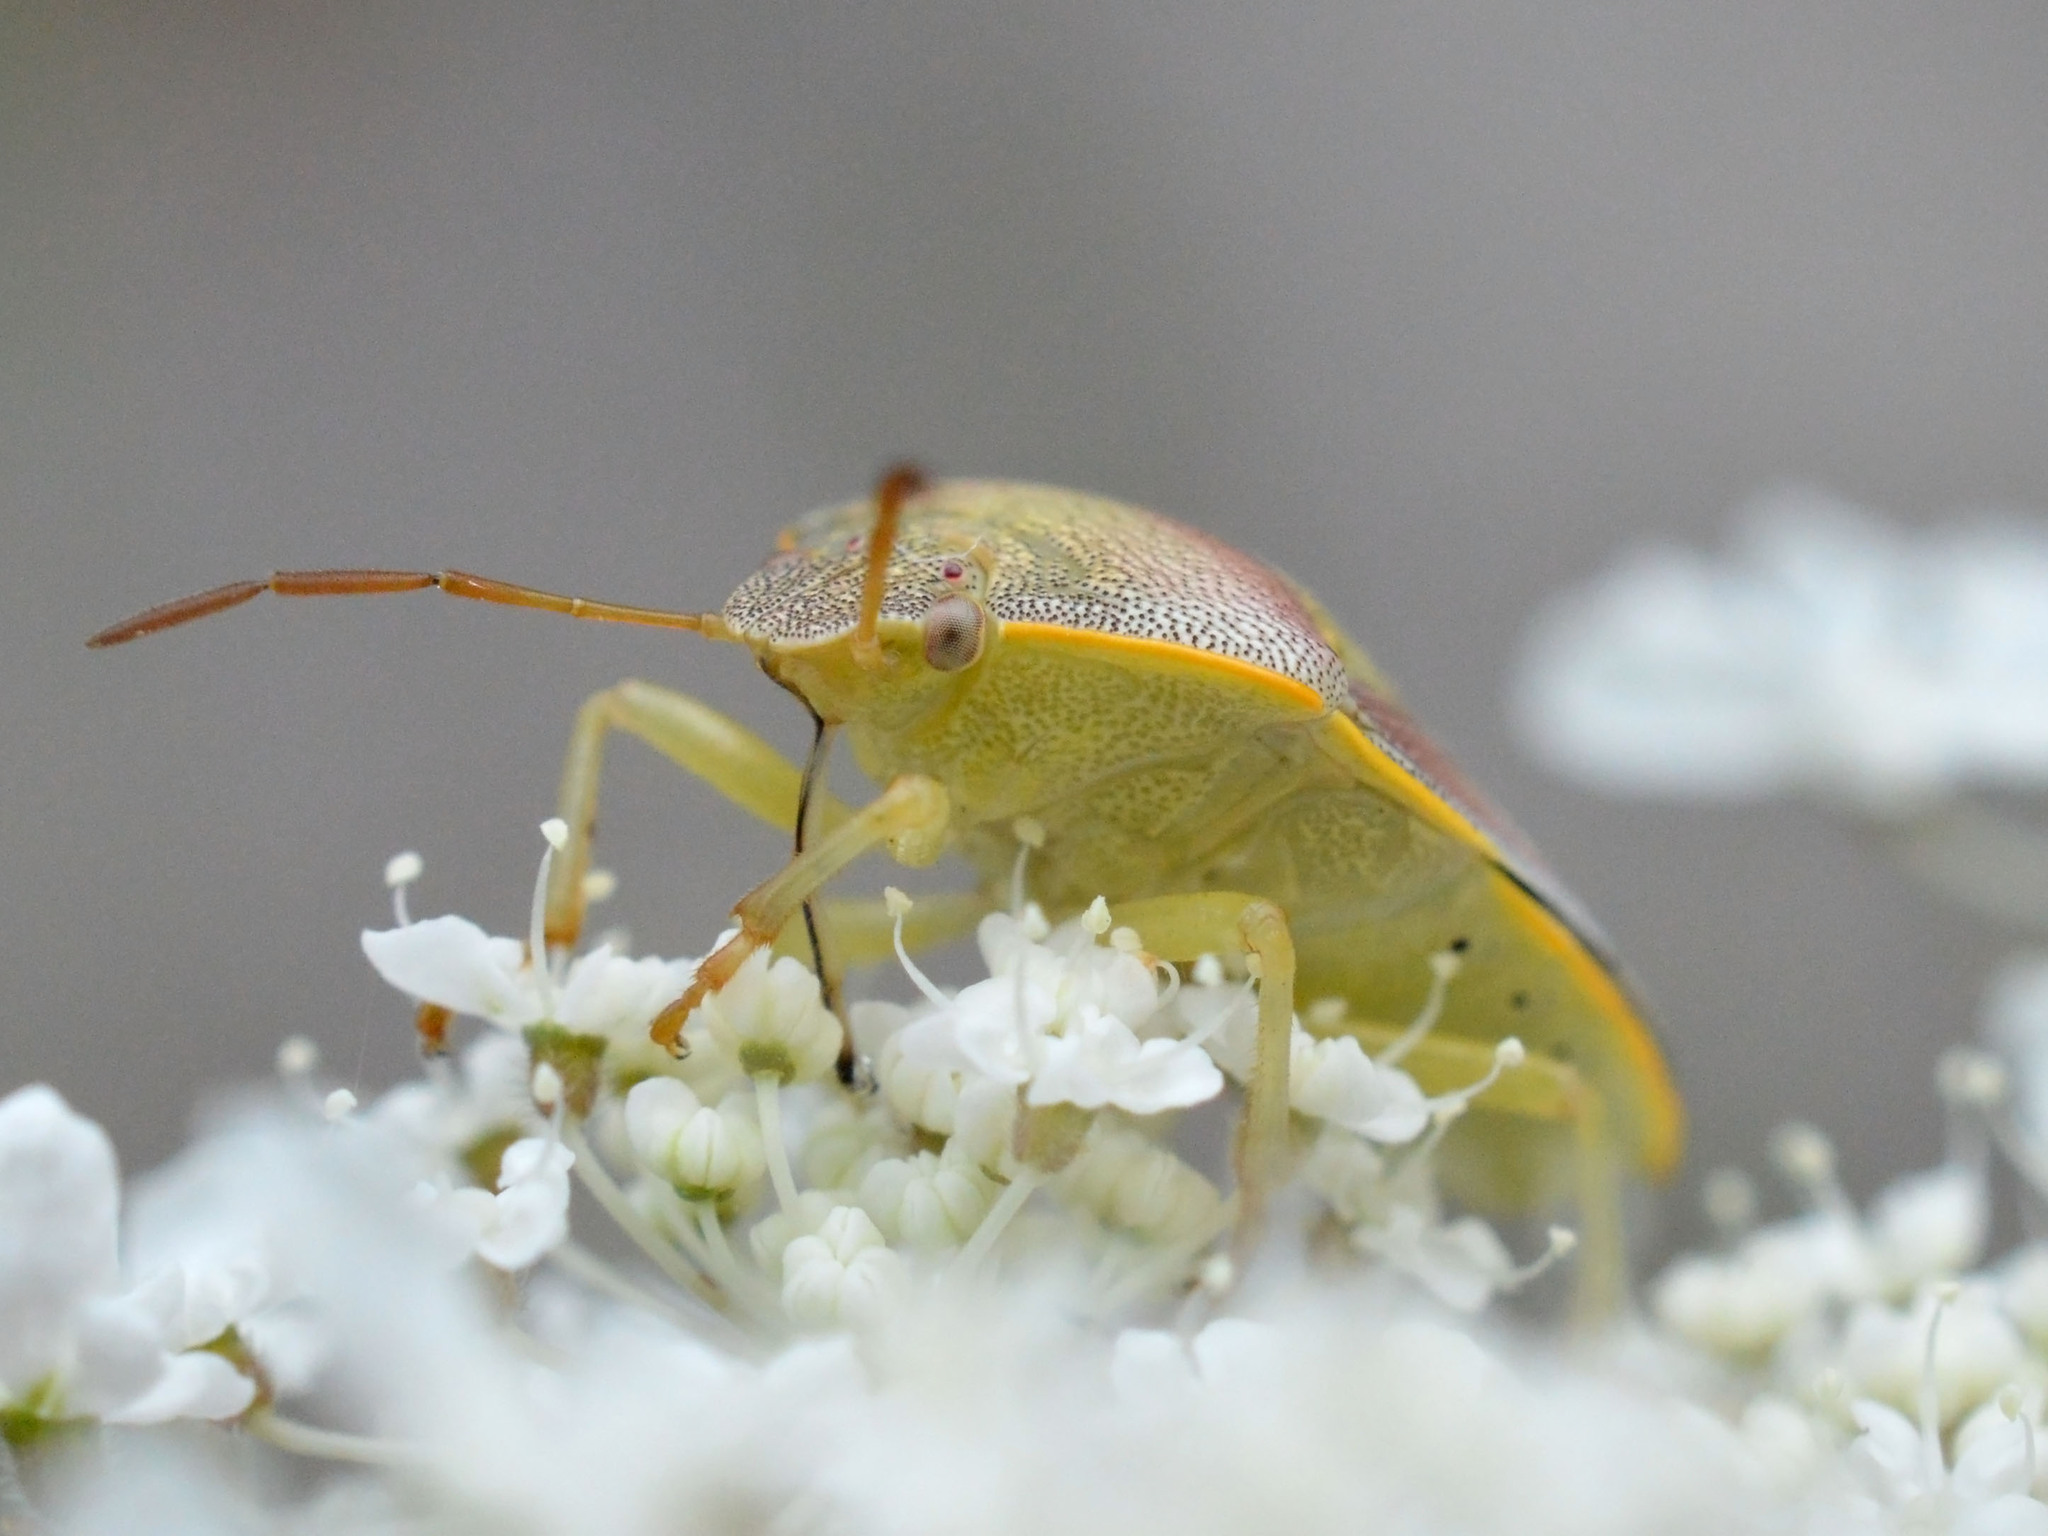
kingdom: Animalia
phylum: Arthropoda
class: Insecta
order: Hemiptera
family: Pentatomidae
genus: Piezodorus
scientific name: Piezodorus lituratus
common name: Stink bug
